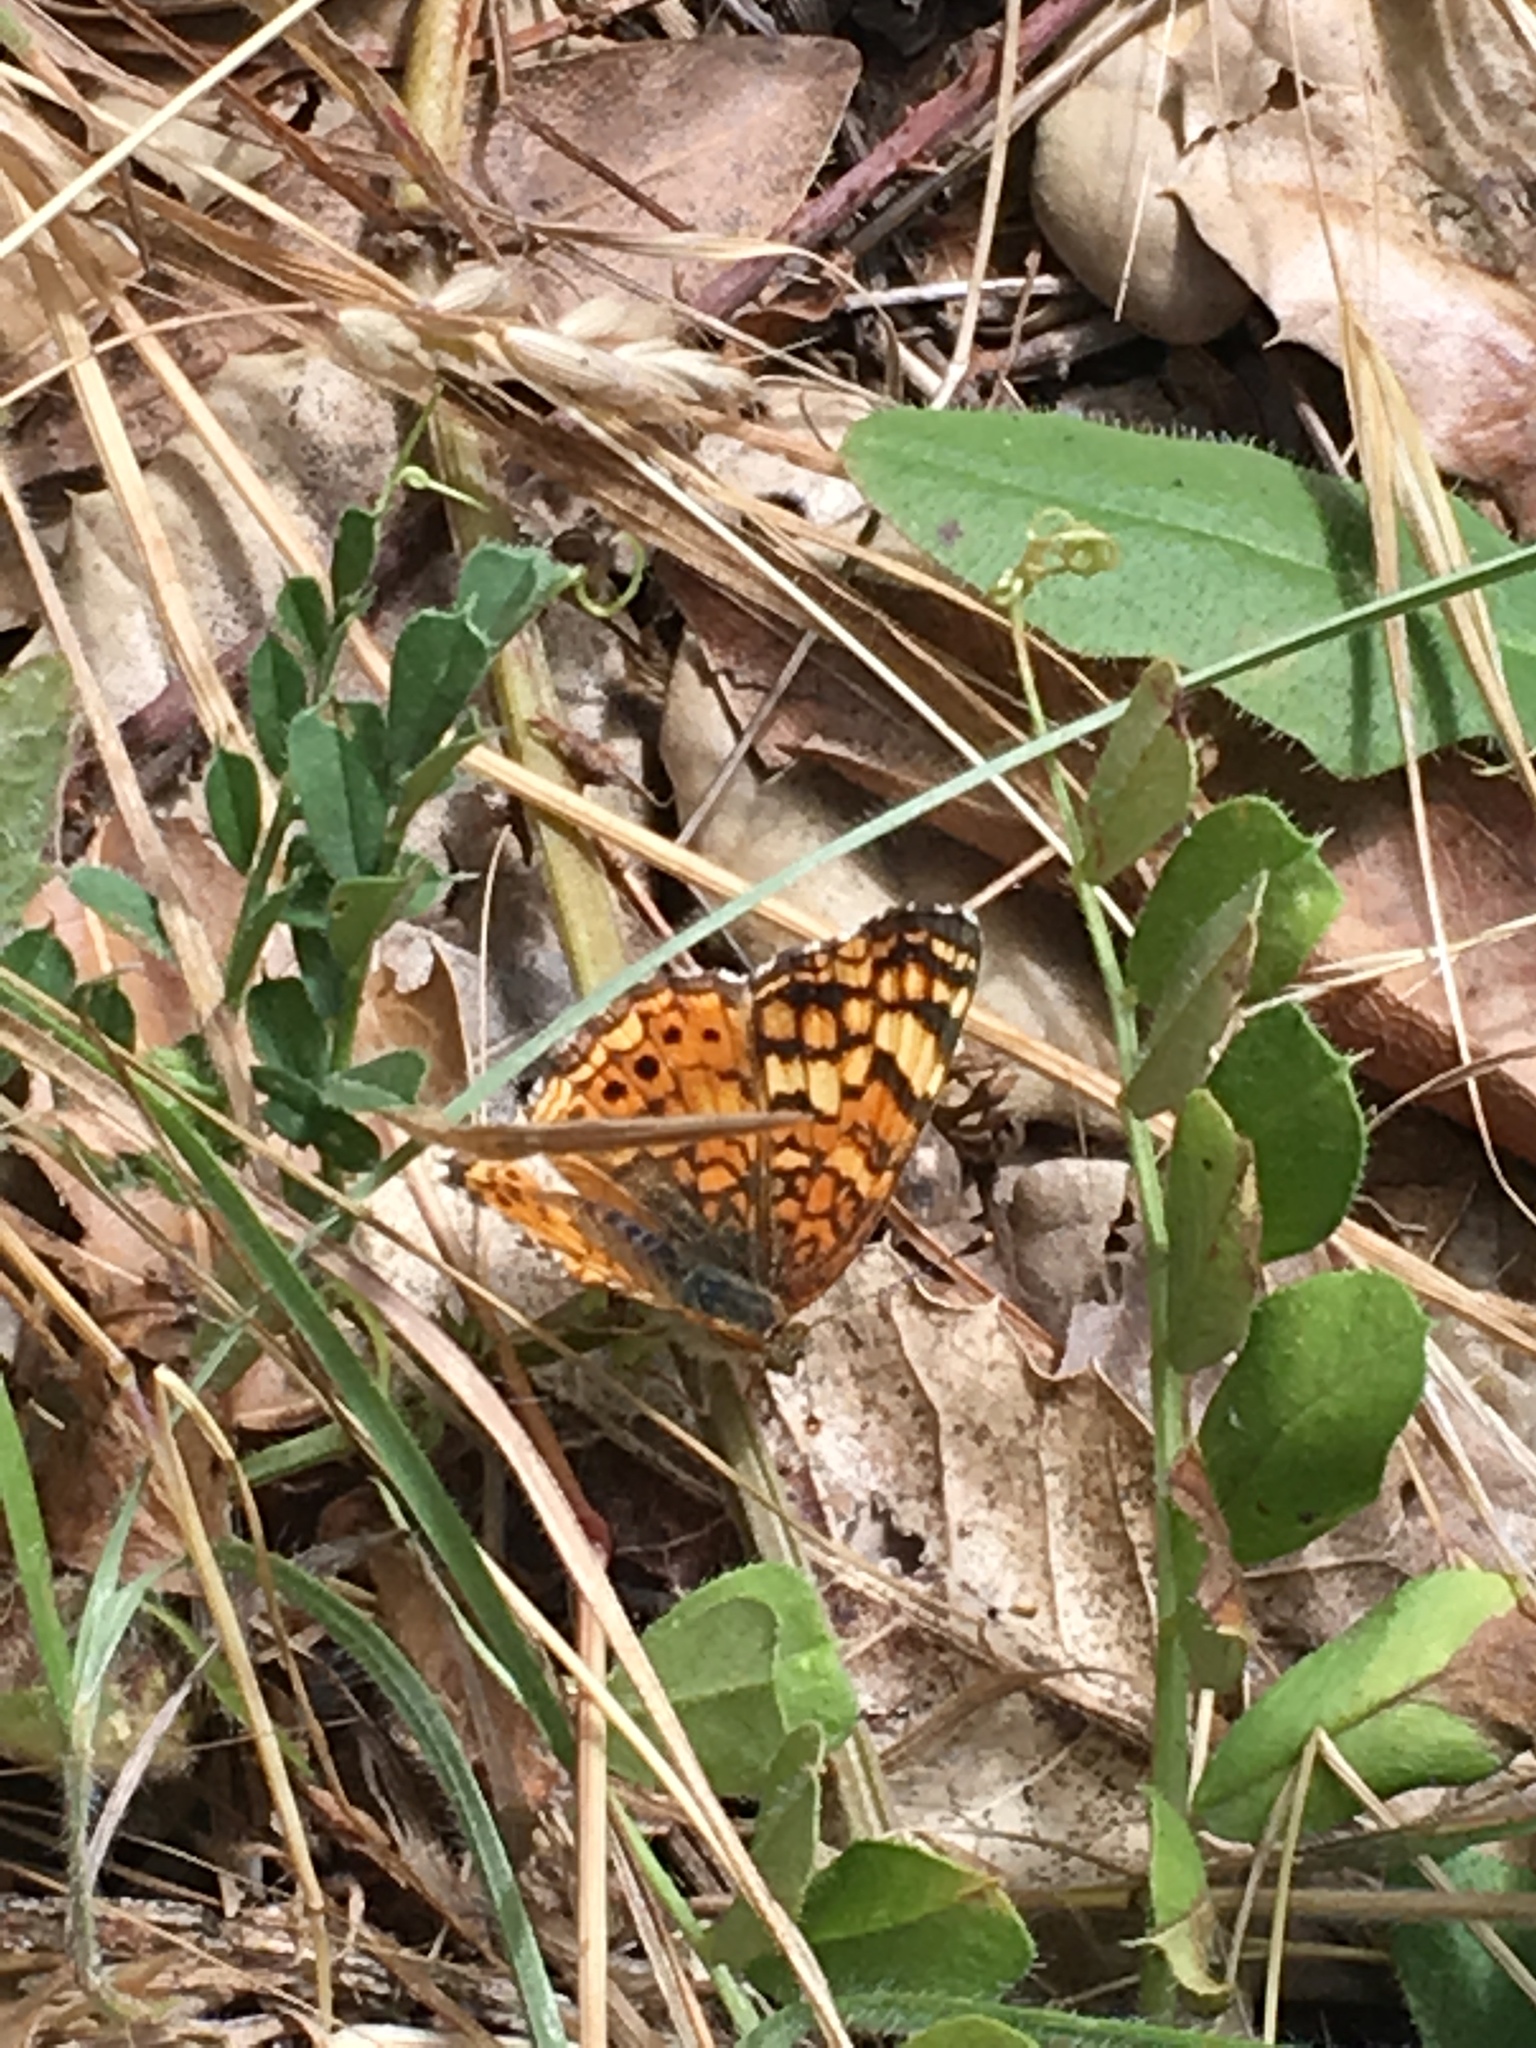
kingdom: Animalia
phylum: Arthropoda
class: Insecta
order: Lepidoptera
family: Nymphalidae
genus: Eresia
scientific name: Eresia aveyrona
